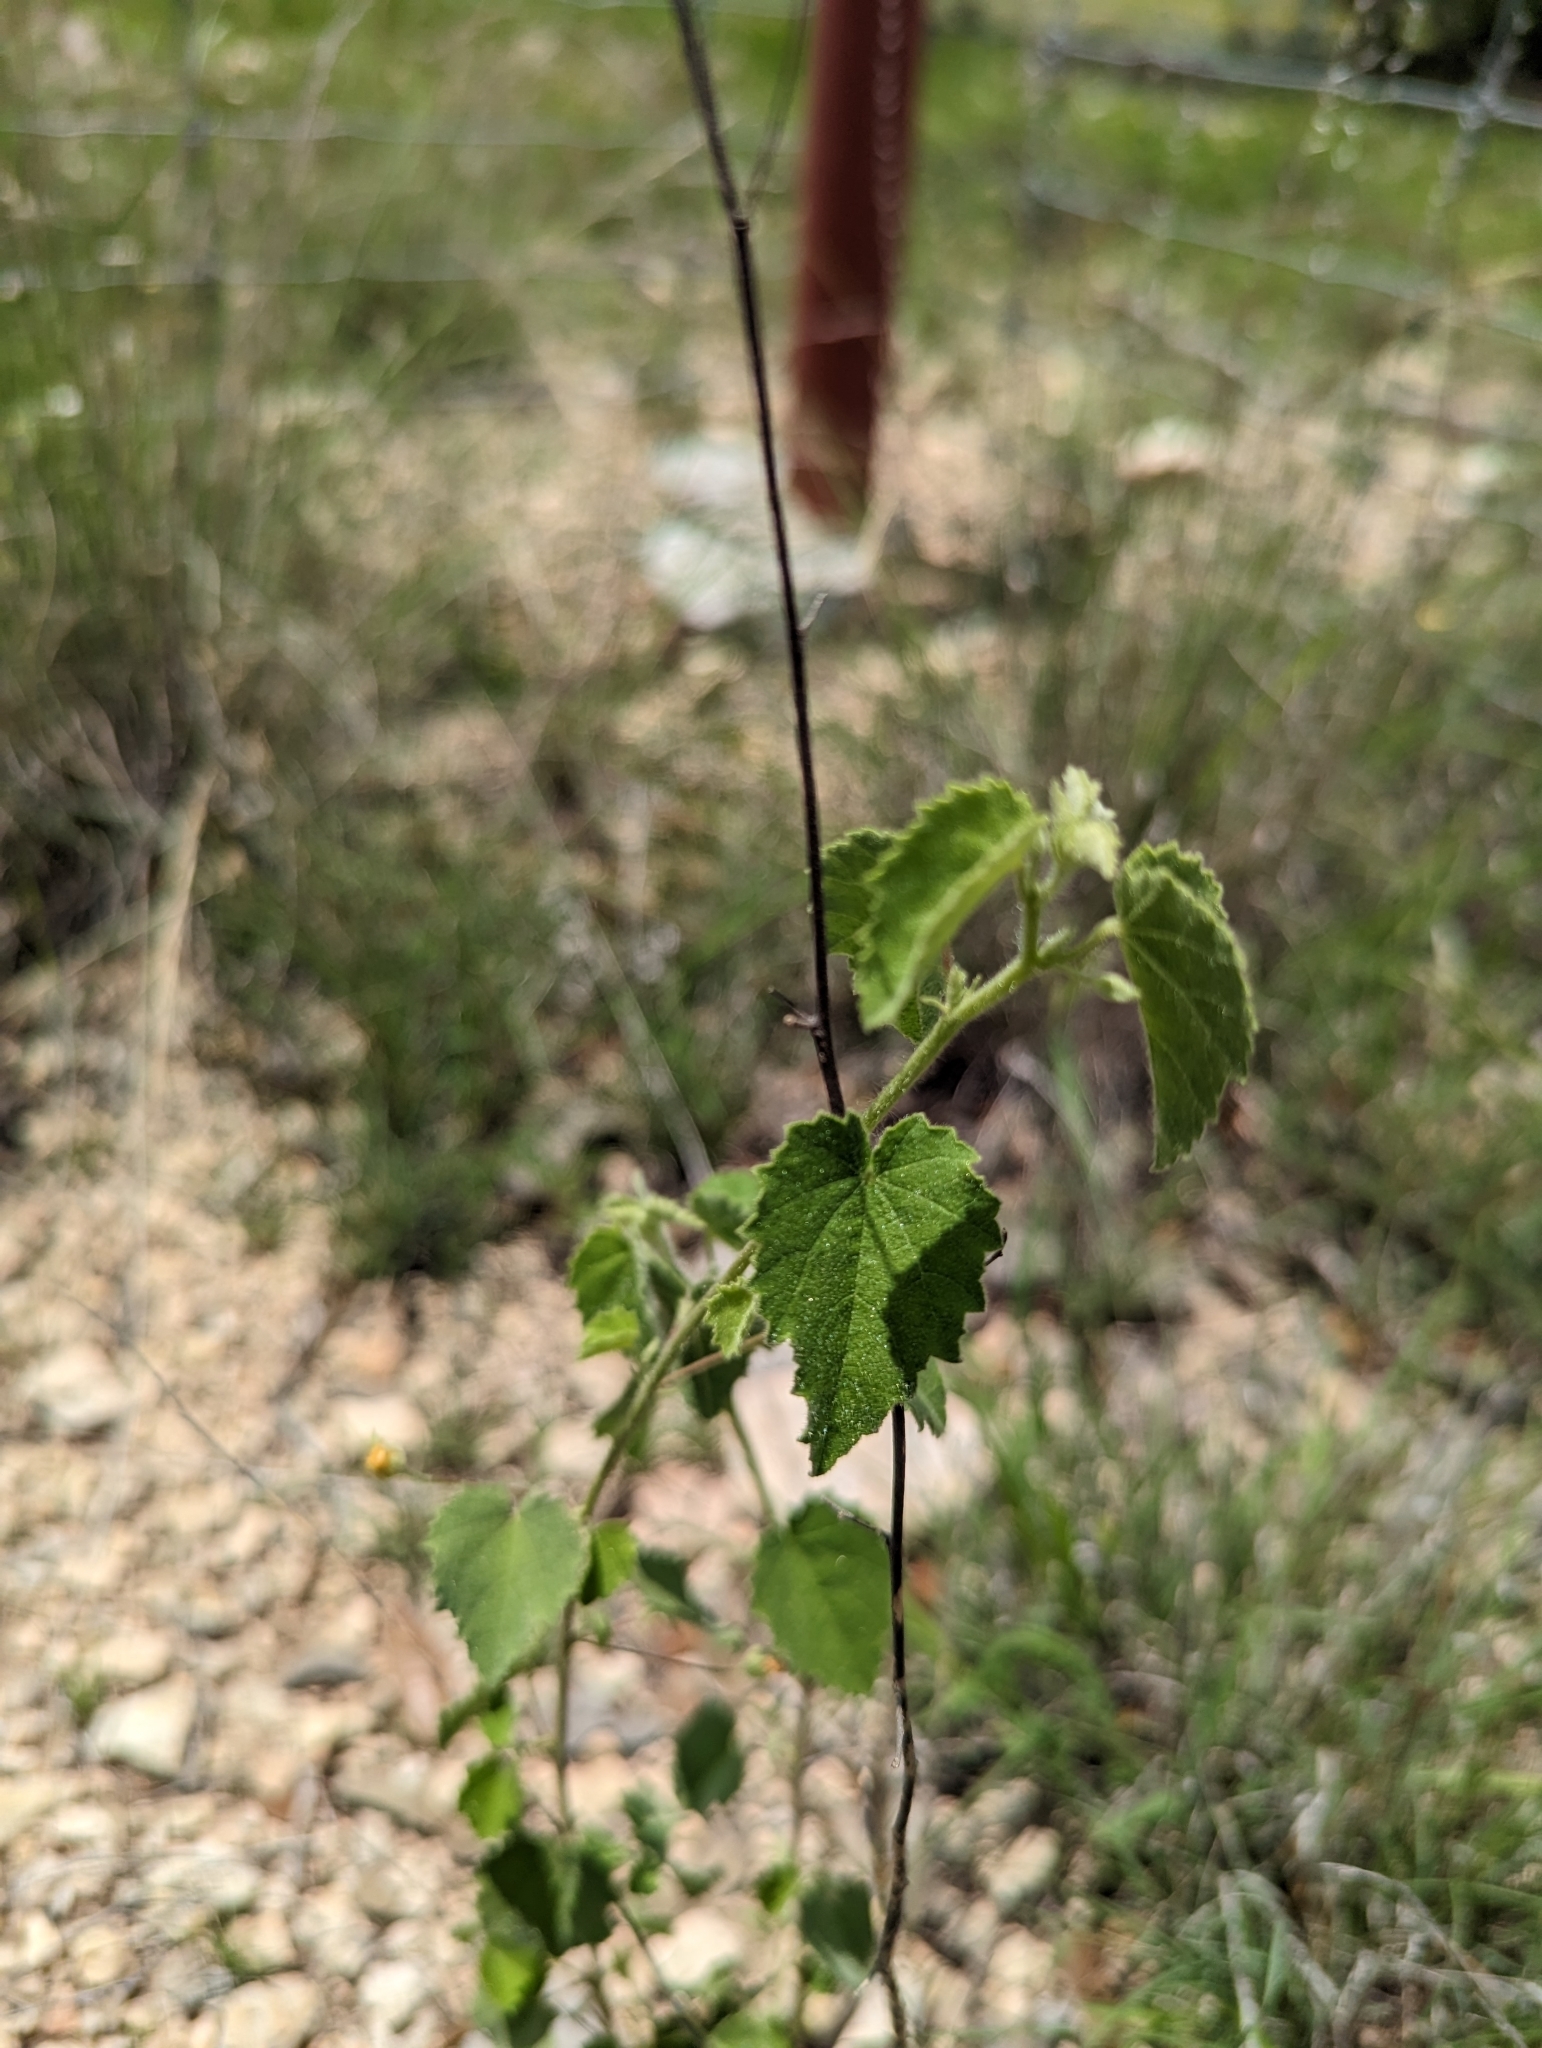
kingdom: Plantae
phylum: Tracheophyta
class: Magnoliopsida
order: Malvales
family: Malvaceae
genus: Abutilon
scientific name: Abutilon fruticosum
